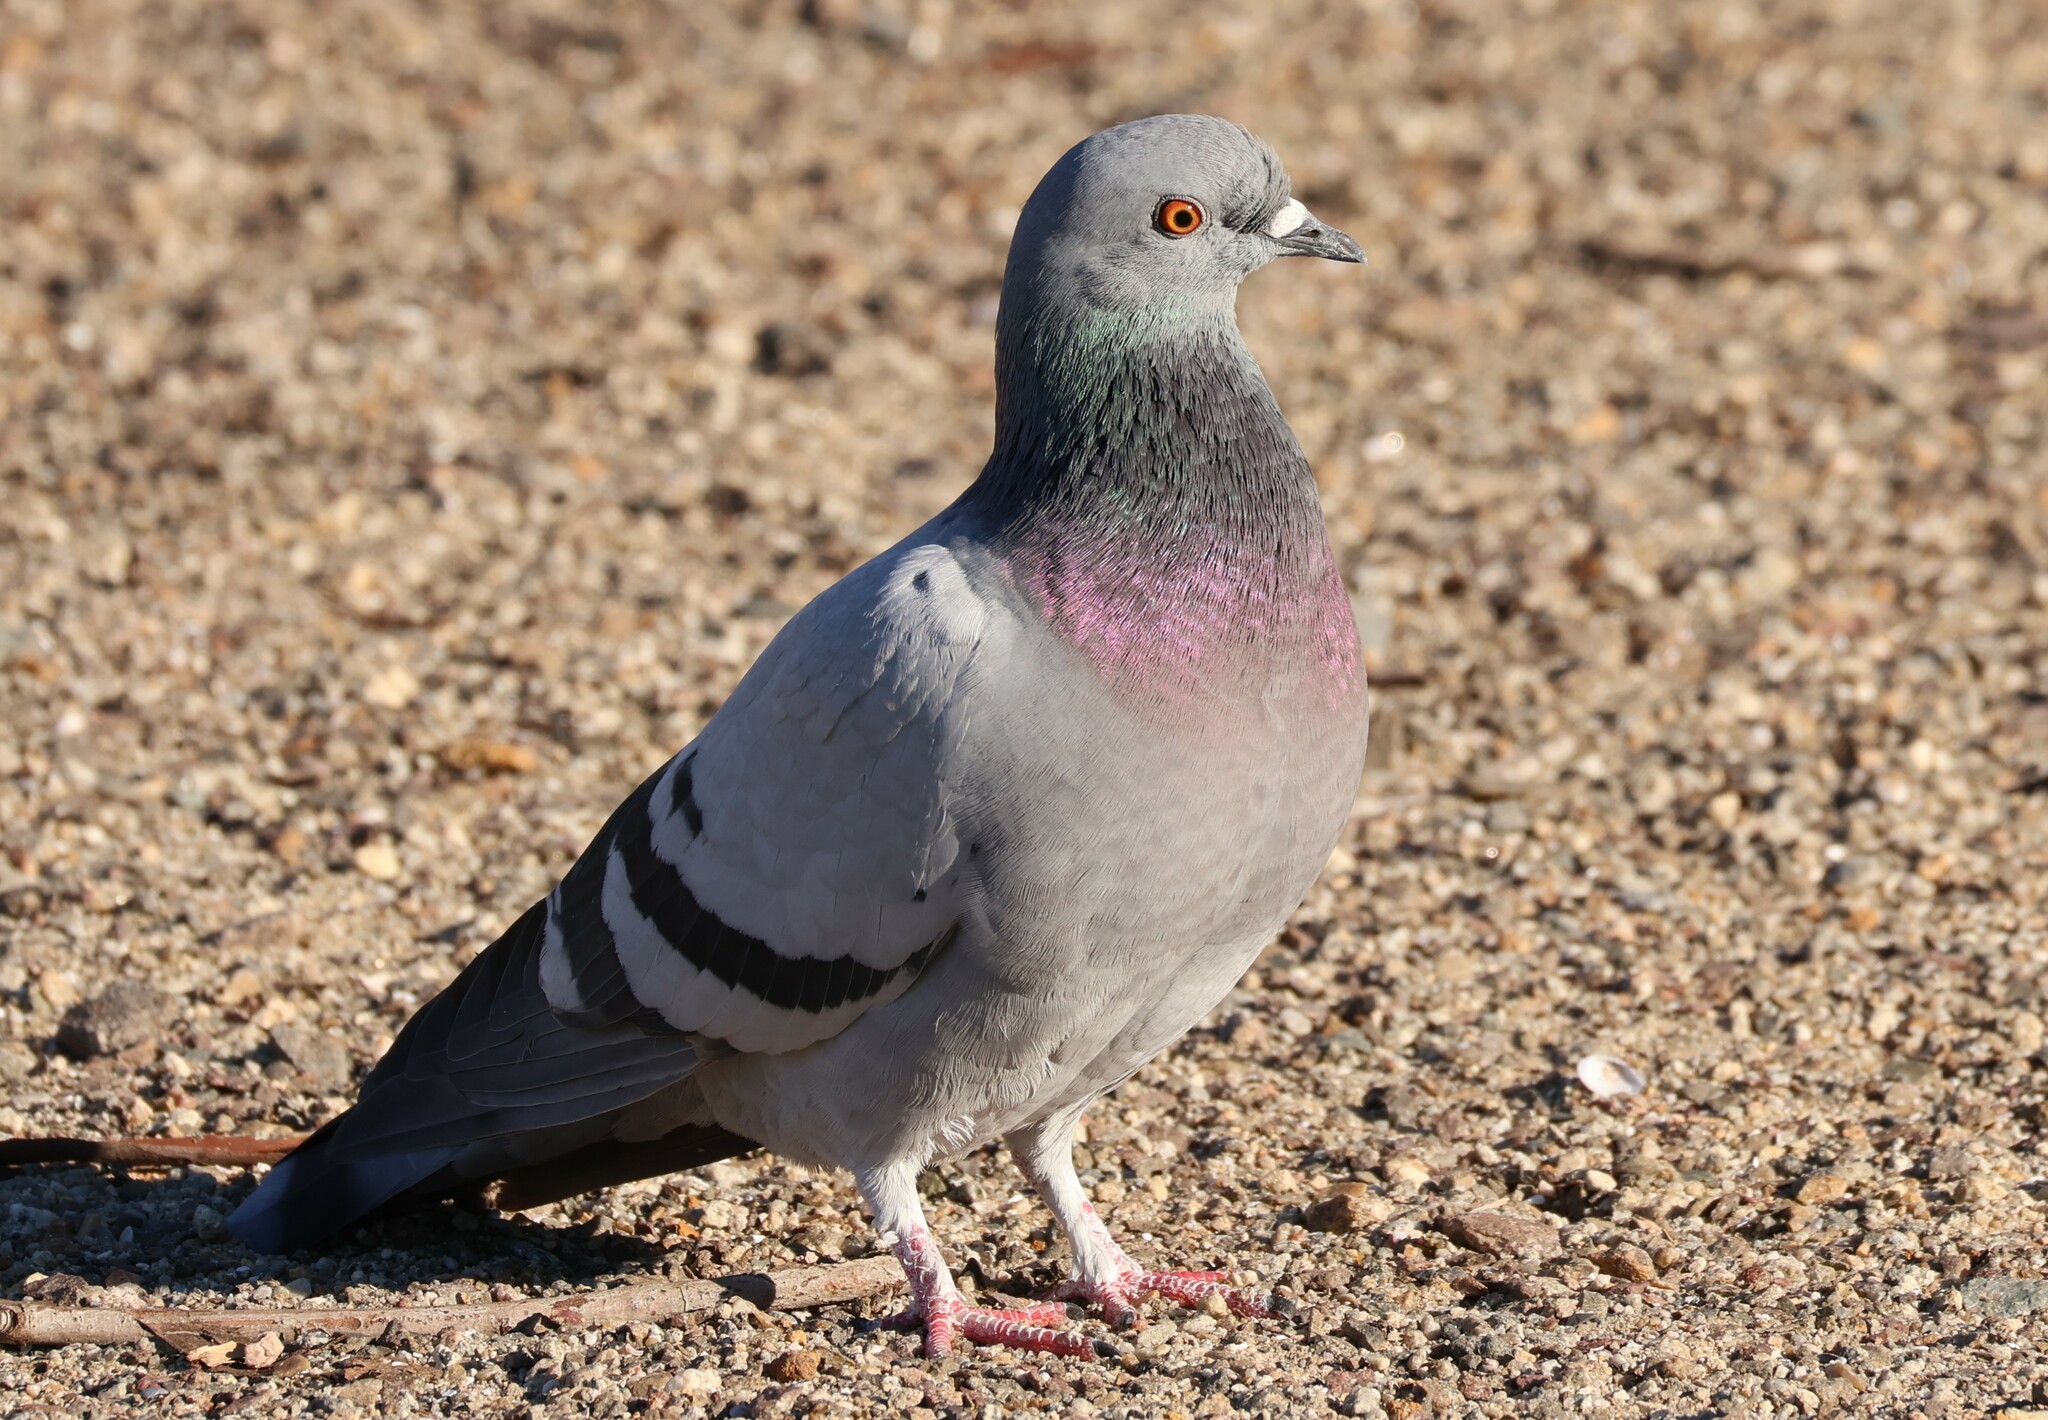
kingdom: Animalia
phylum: Chordata
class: Aves
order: Columbiformes
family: Columbidae
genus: Columba
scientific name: Columba livia
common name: Rock pigeon
